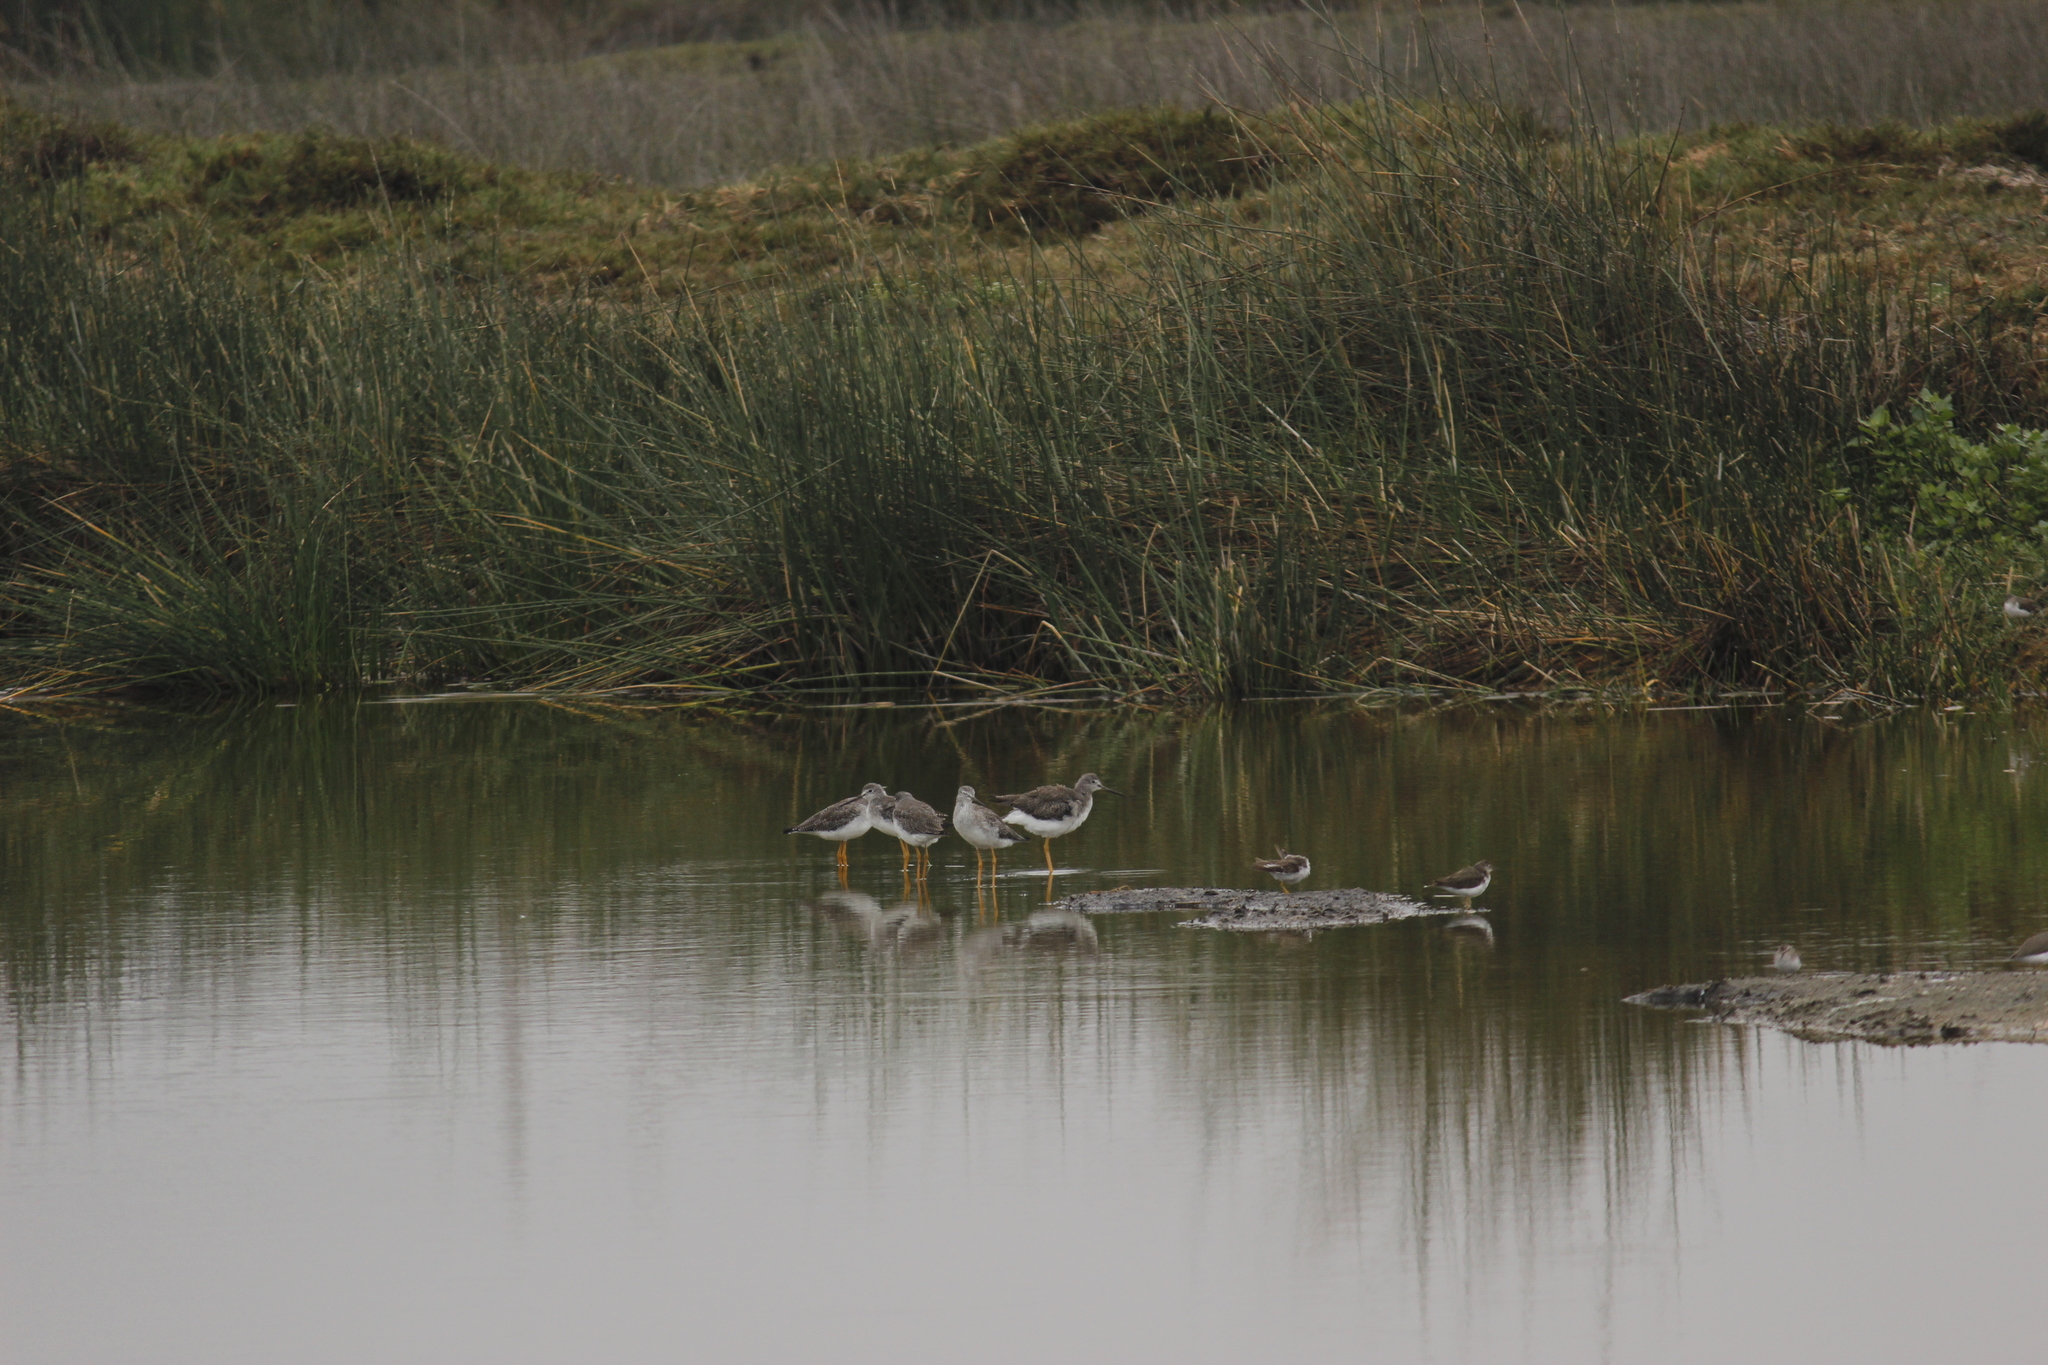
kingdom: Animalia
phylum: Chordata
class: Aves
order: Charadriiformes
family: Scolopacidae
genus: Tringa
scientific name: Tringa melanoleuca
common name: Greater yellowlegs
